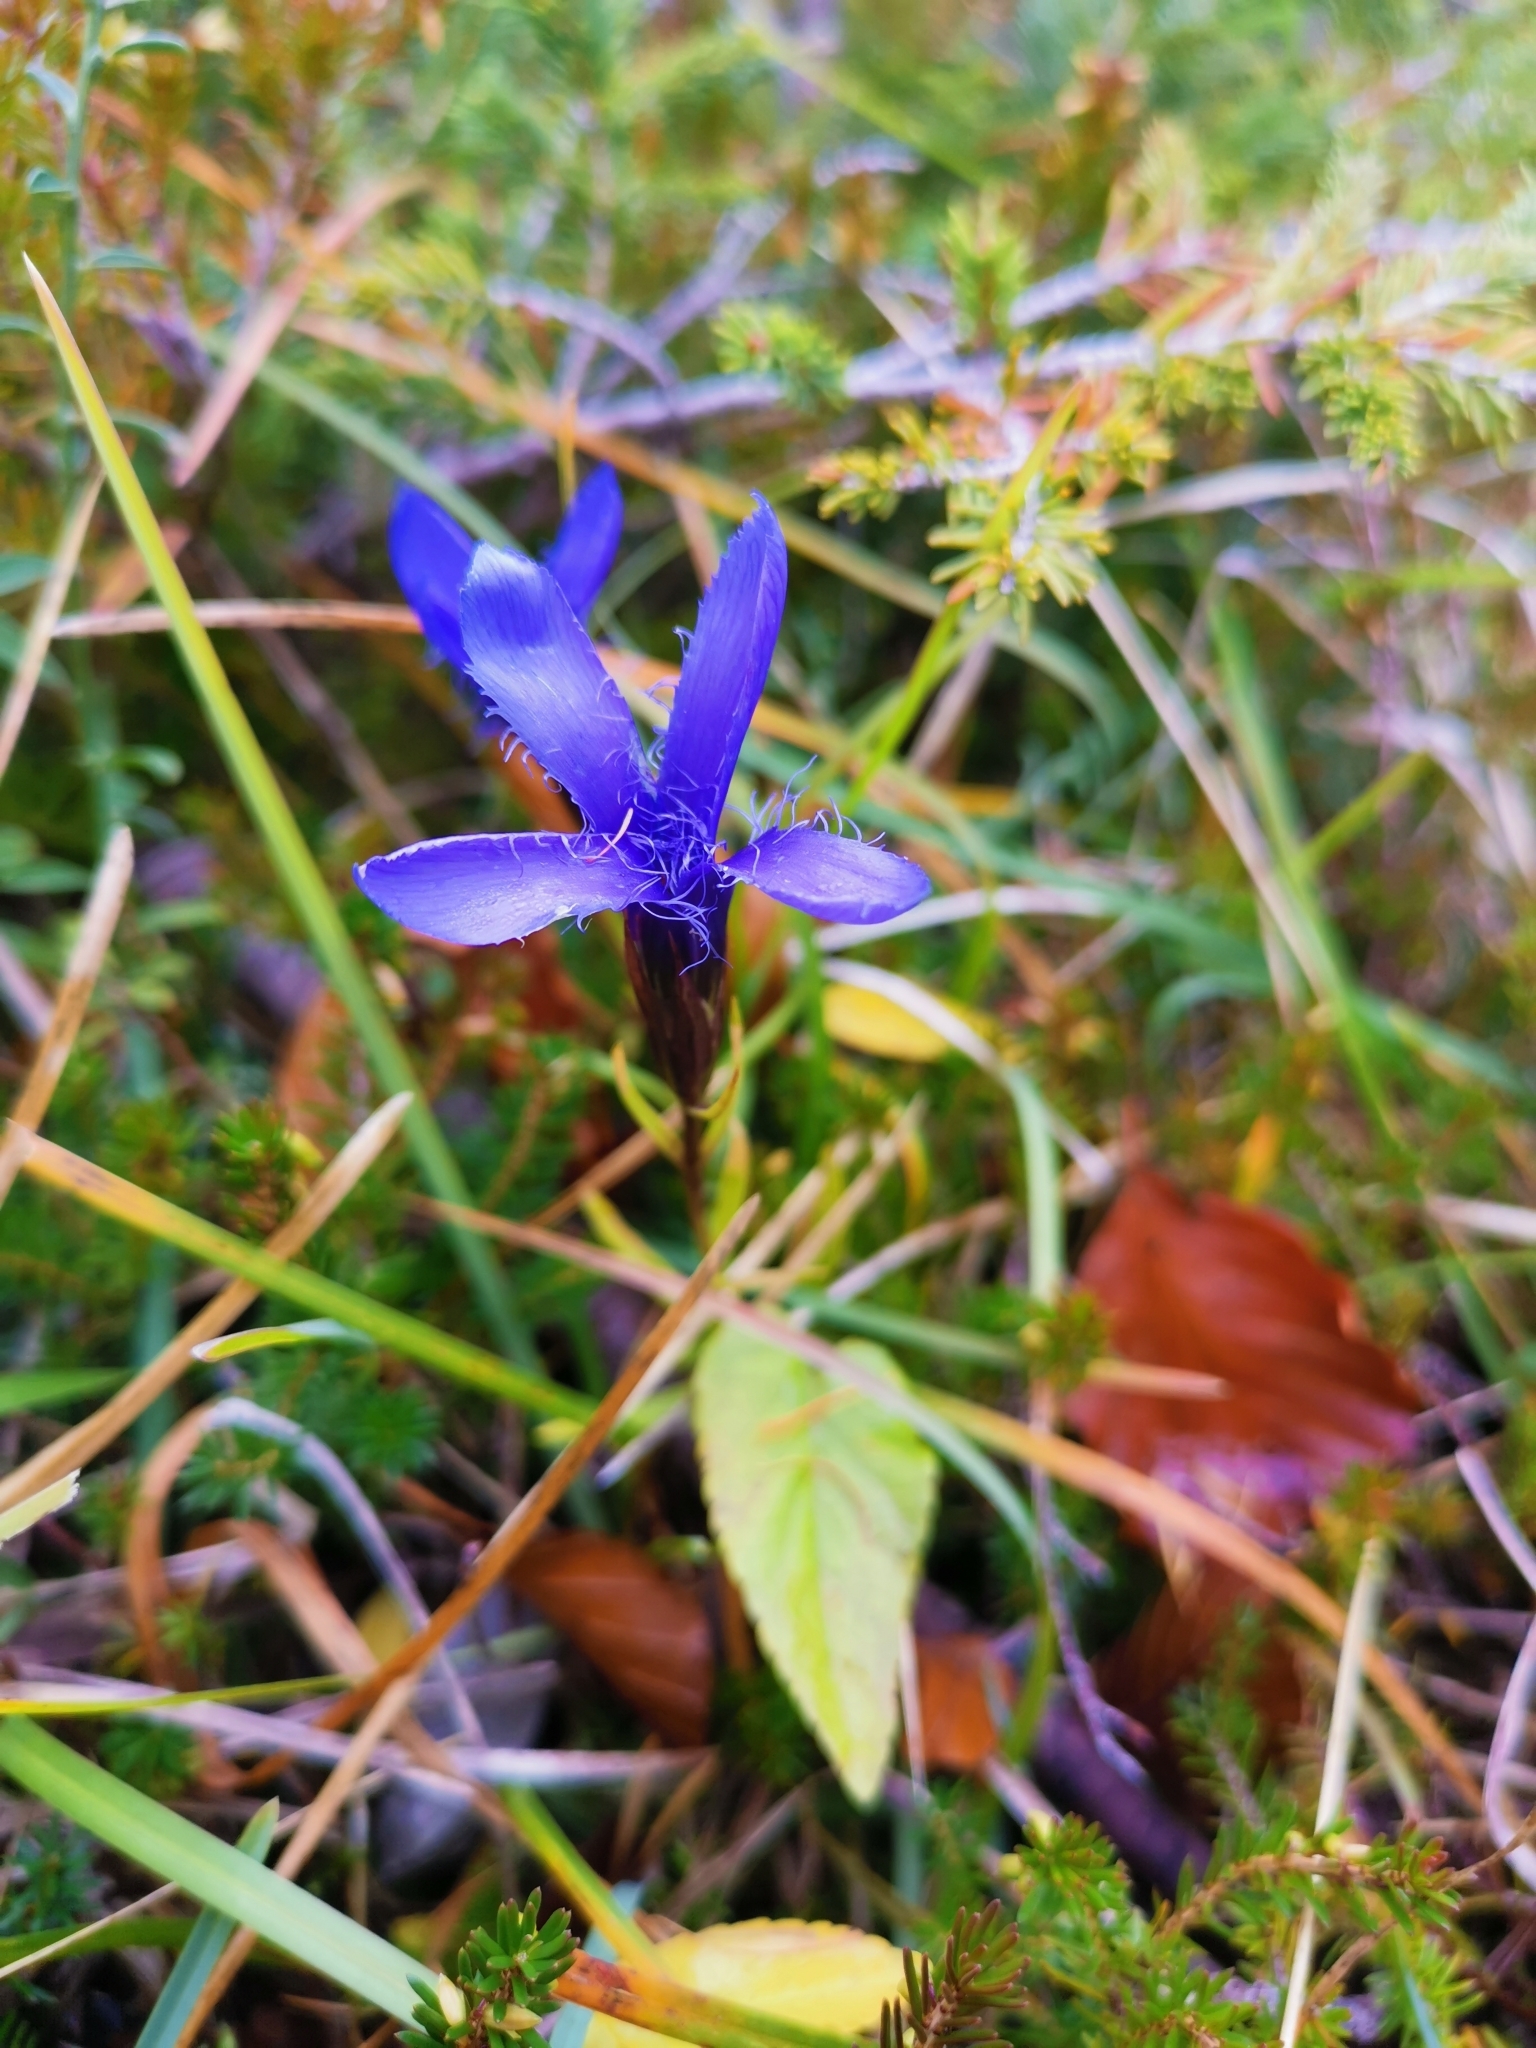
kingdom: Plantae
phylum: Tracheophyta
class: Magnoliopsida
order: Gentianales
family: Gentianaceae
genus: Gentianopsis
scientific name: Gentianopsis ciliata
